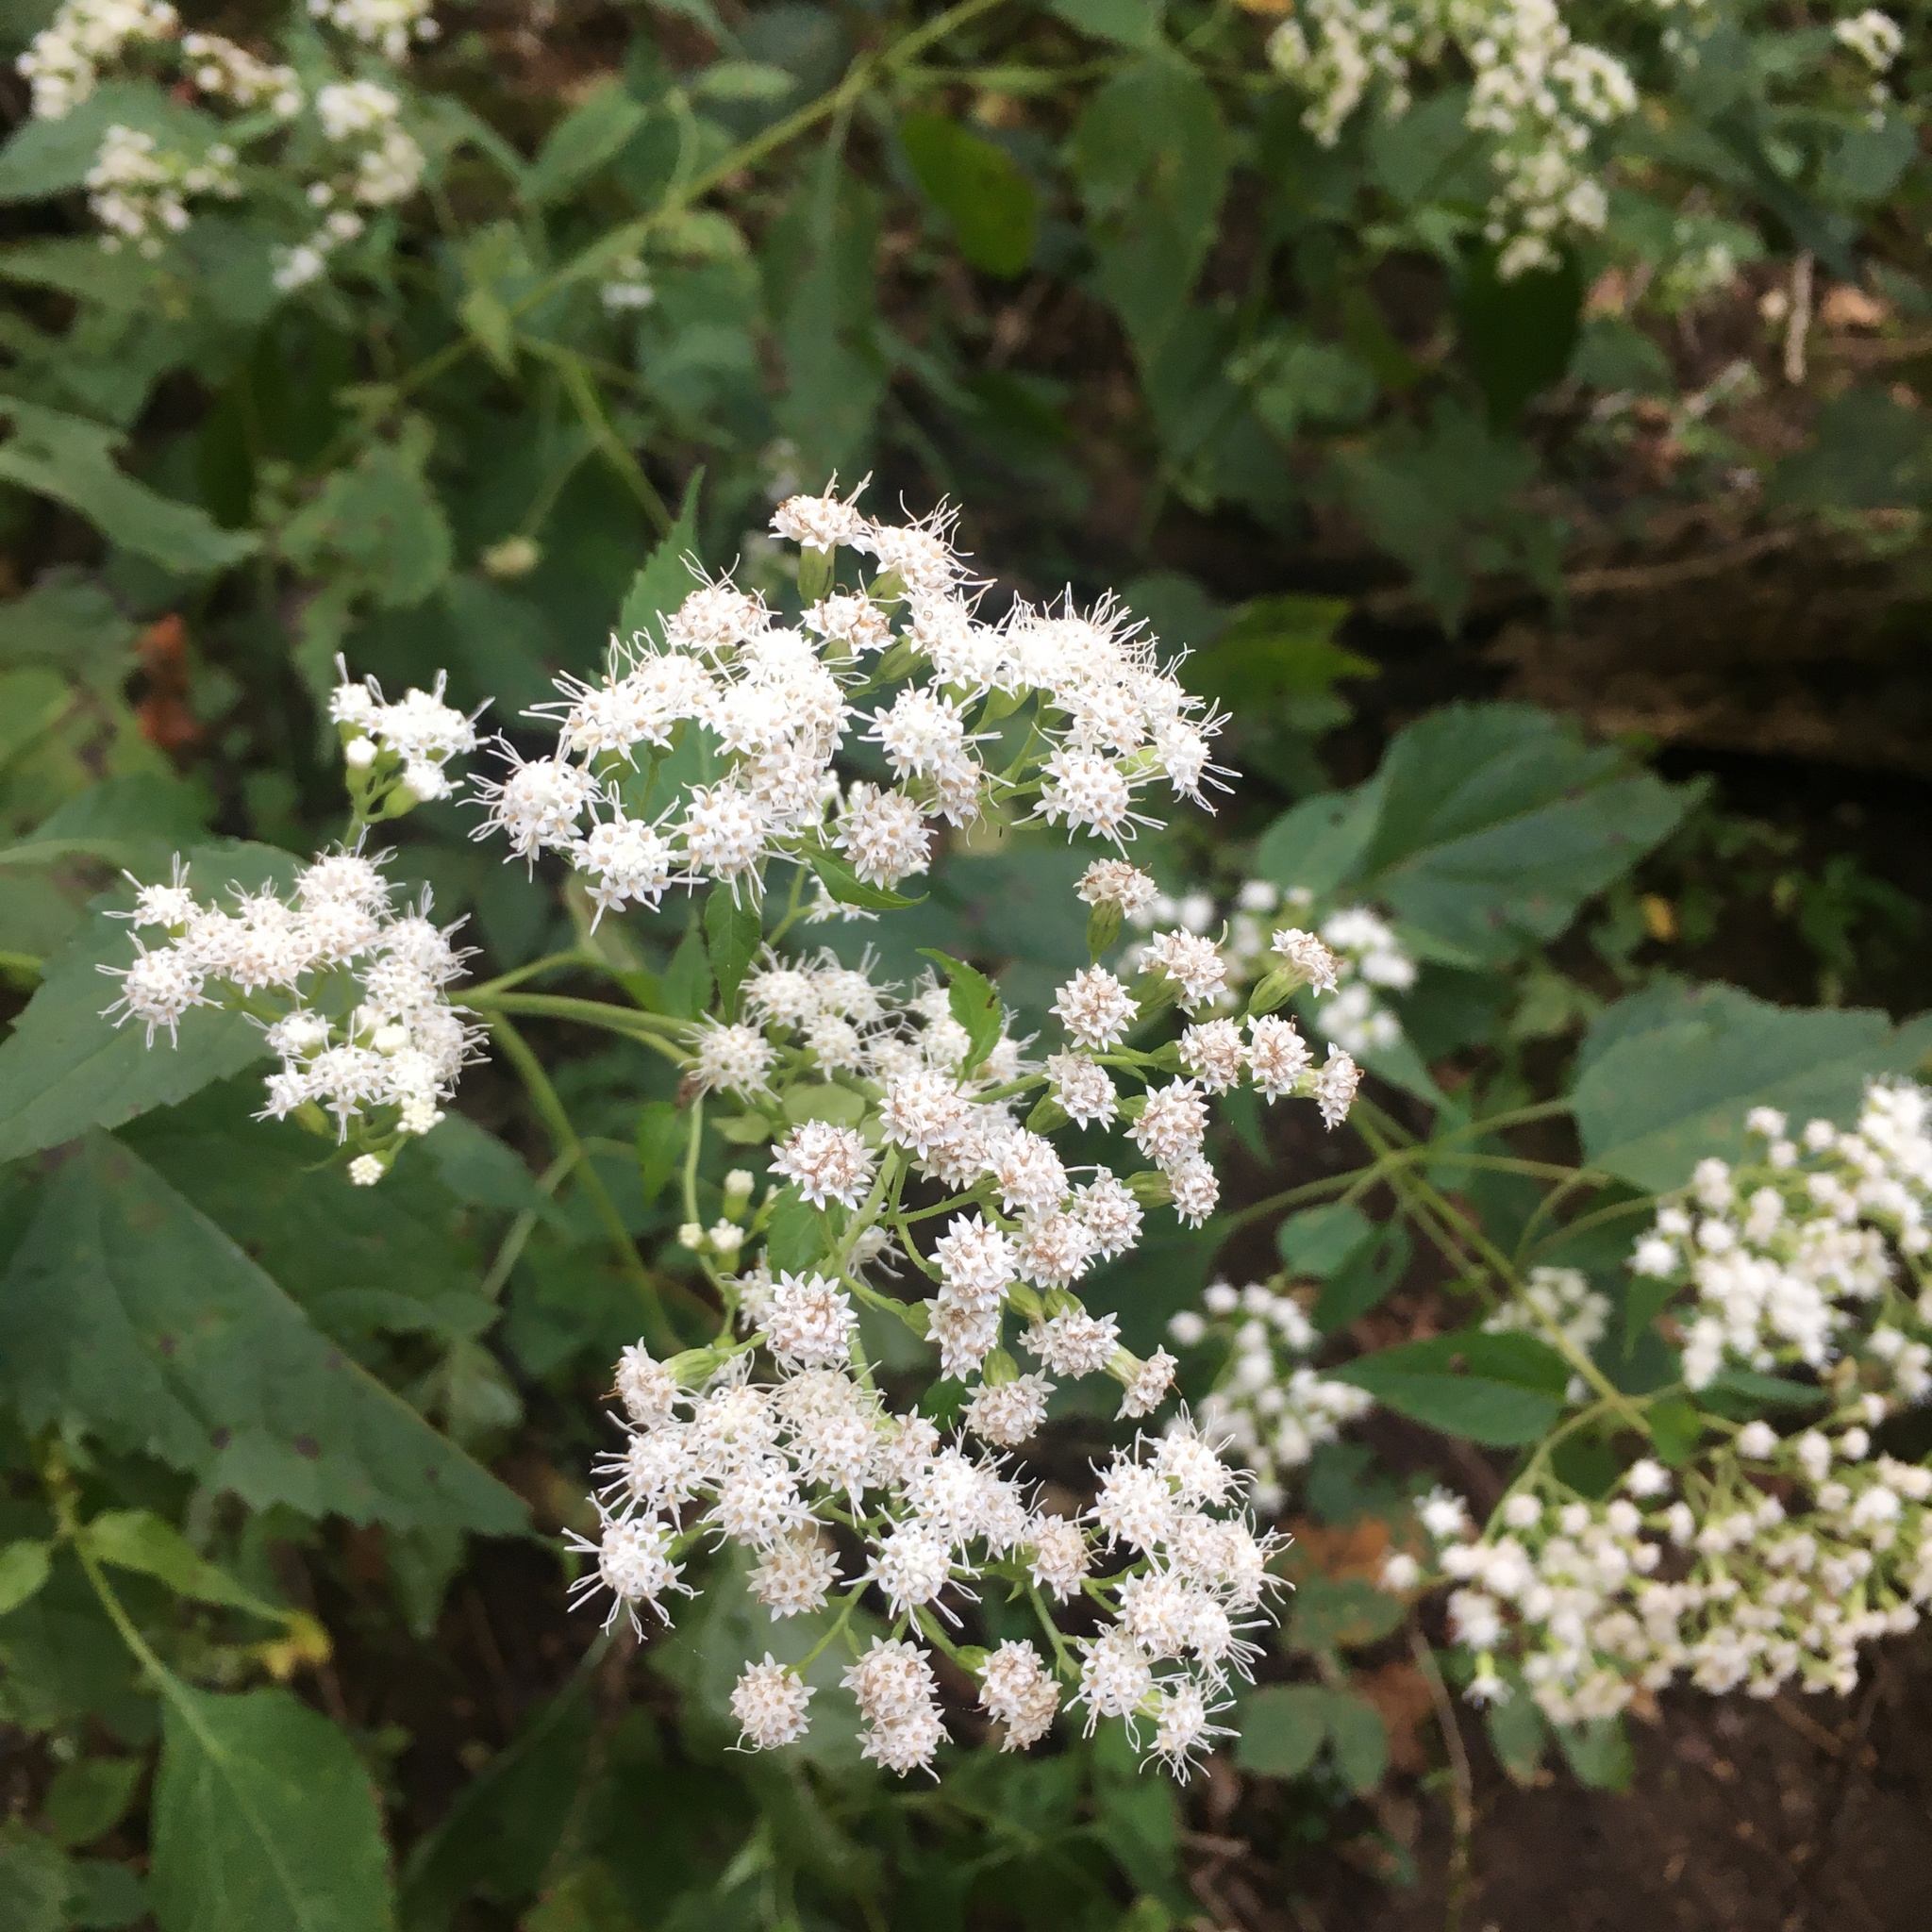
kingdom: Plantae
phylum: Tracheophyta
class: Magnoliopsida
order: Asterales
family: Asteraceae
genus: Ageratina
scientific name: Ageratina altissima
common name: White snakeroot
